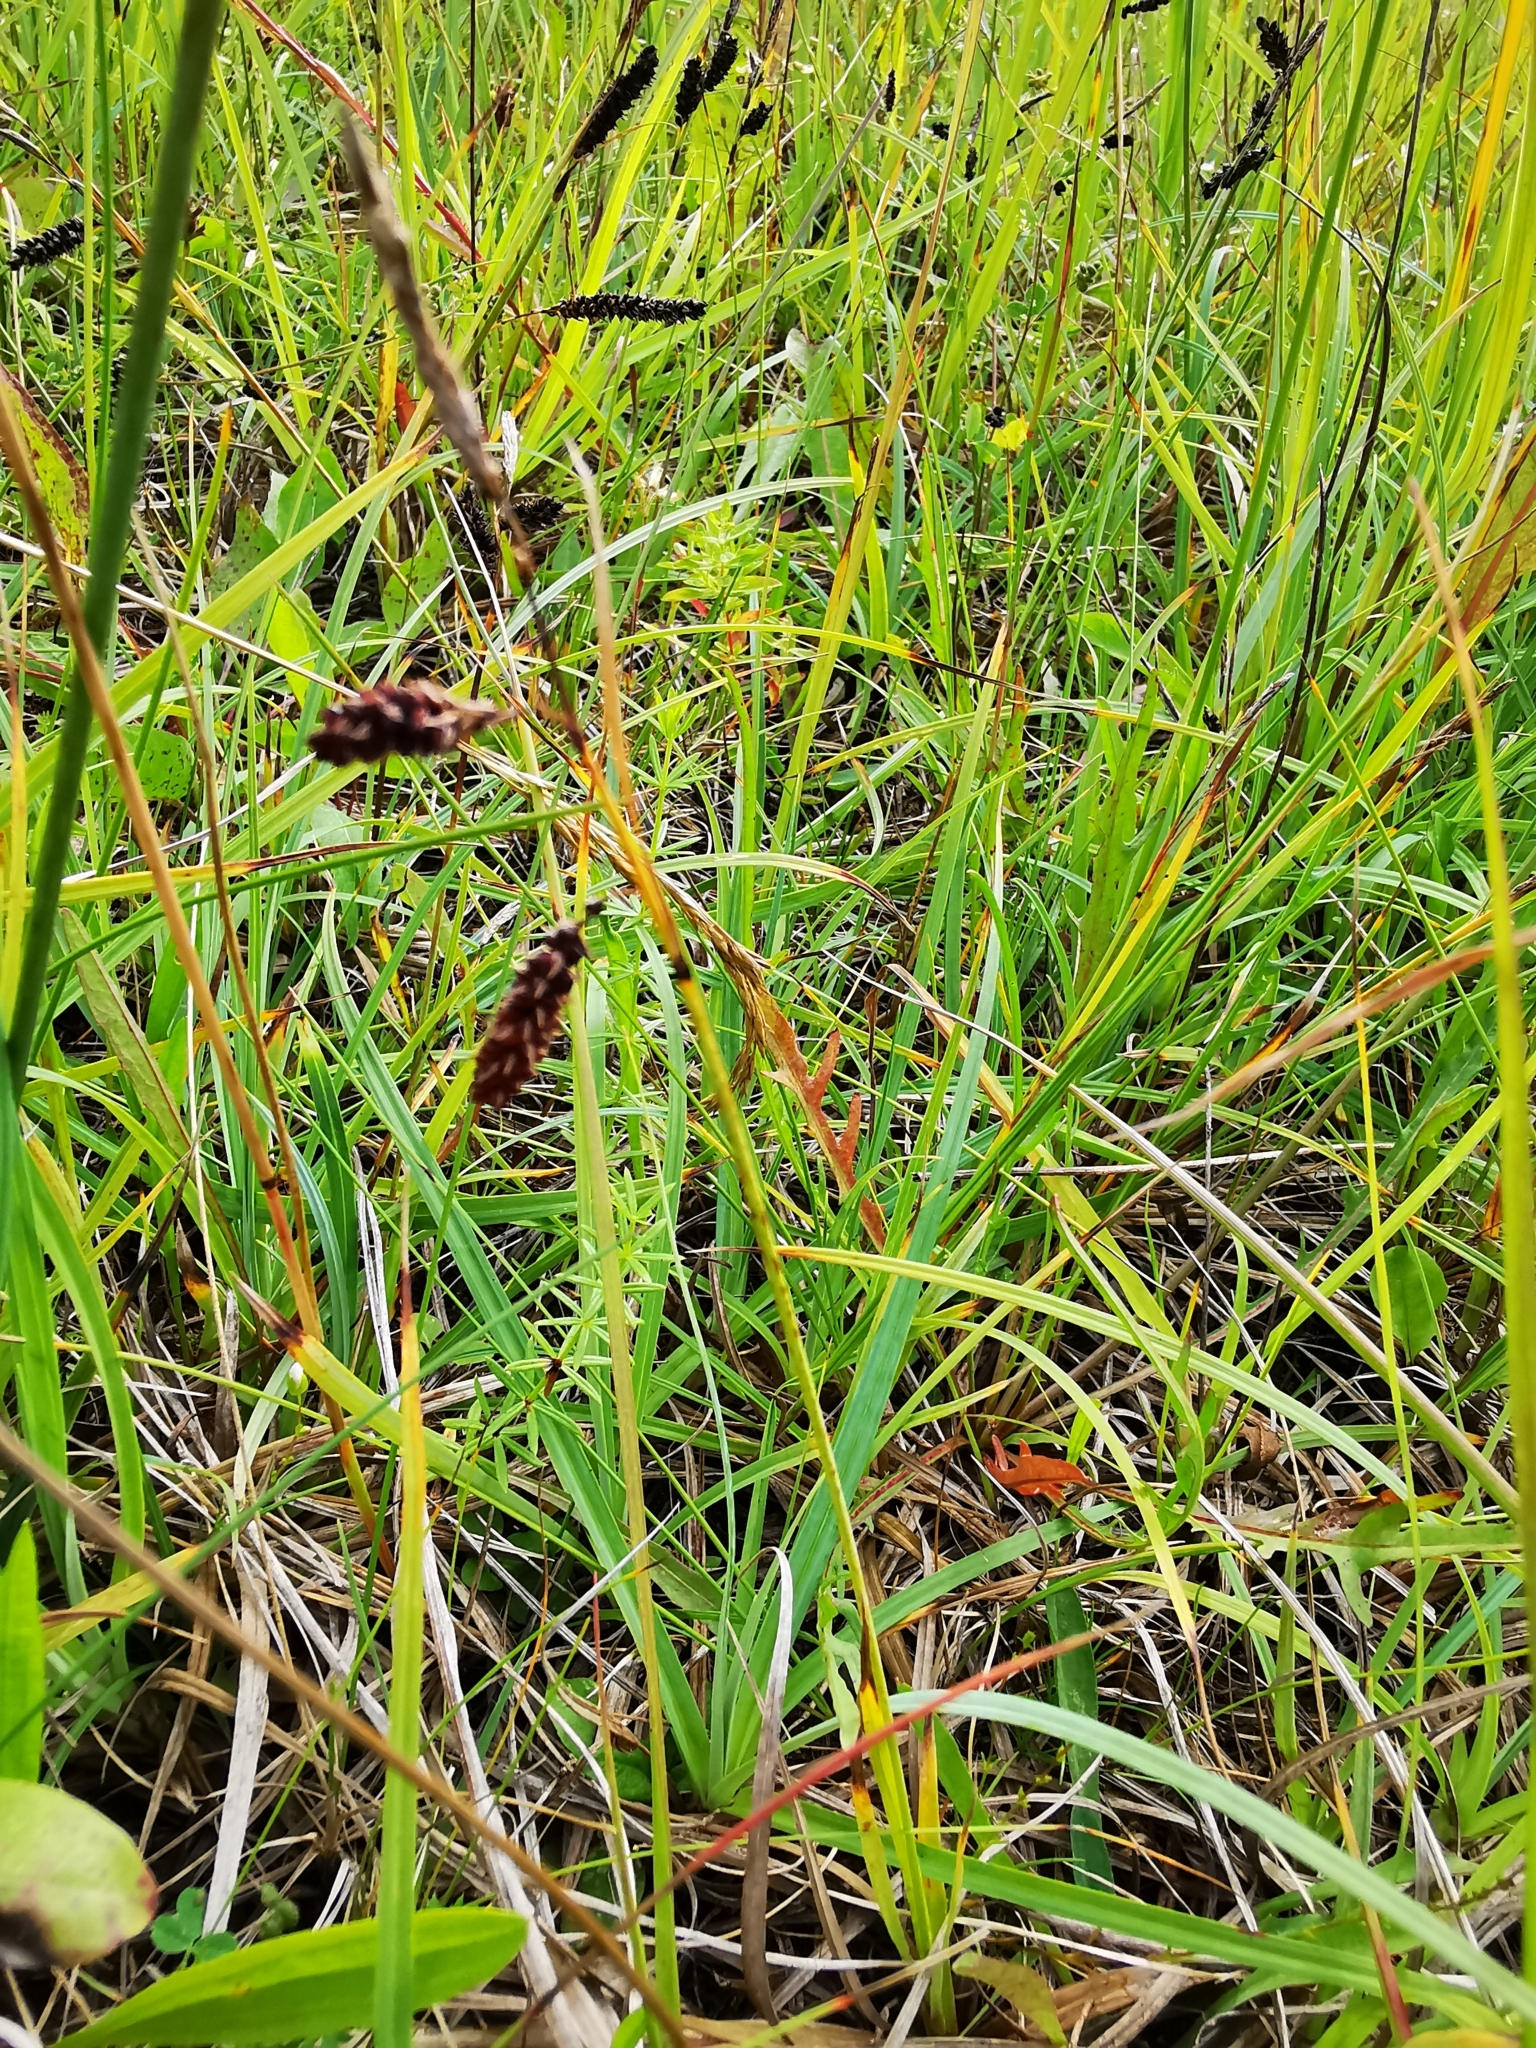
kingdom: Plantae
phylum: Tracheophyta
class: Liliopsida
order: Poales
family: Cyperaceae
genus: Carex
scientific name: Carex flacca
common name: Glaucous sedge
